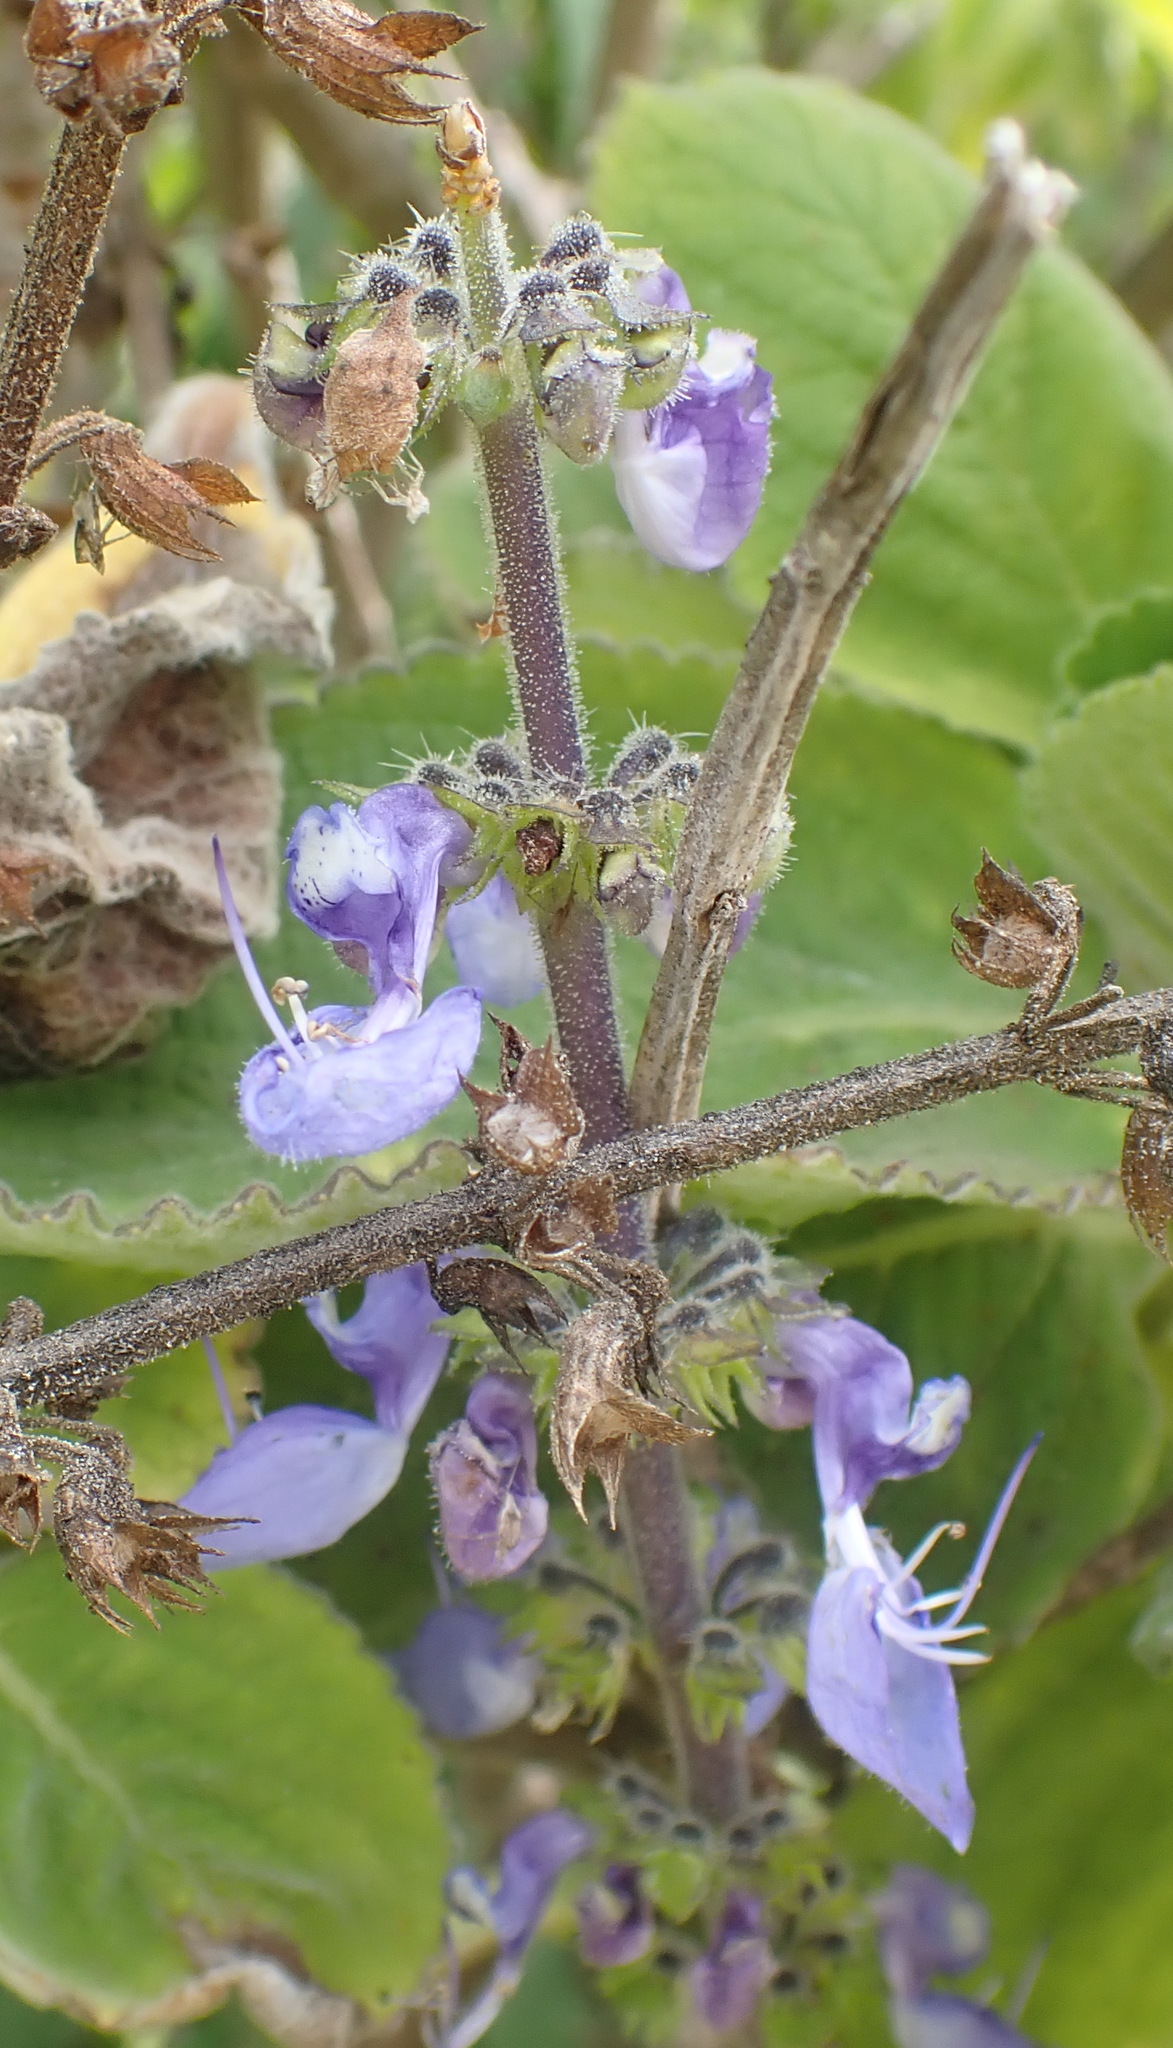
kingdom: Plantae
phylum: Tracheophyta
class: Magnoliopsida
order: Lamiales
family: Lamiaceae
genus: Coleus
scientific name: Coleus barbatus
